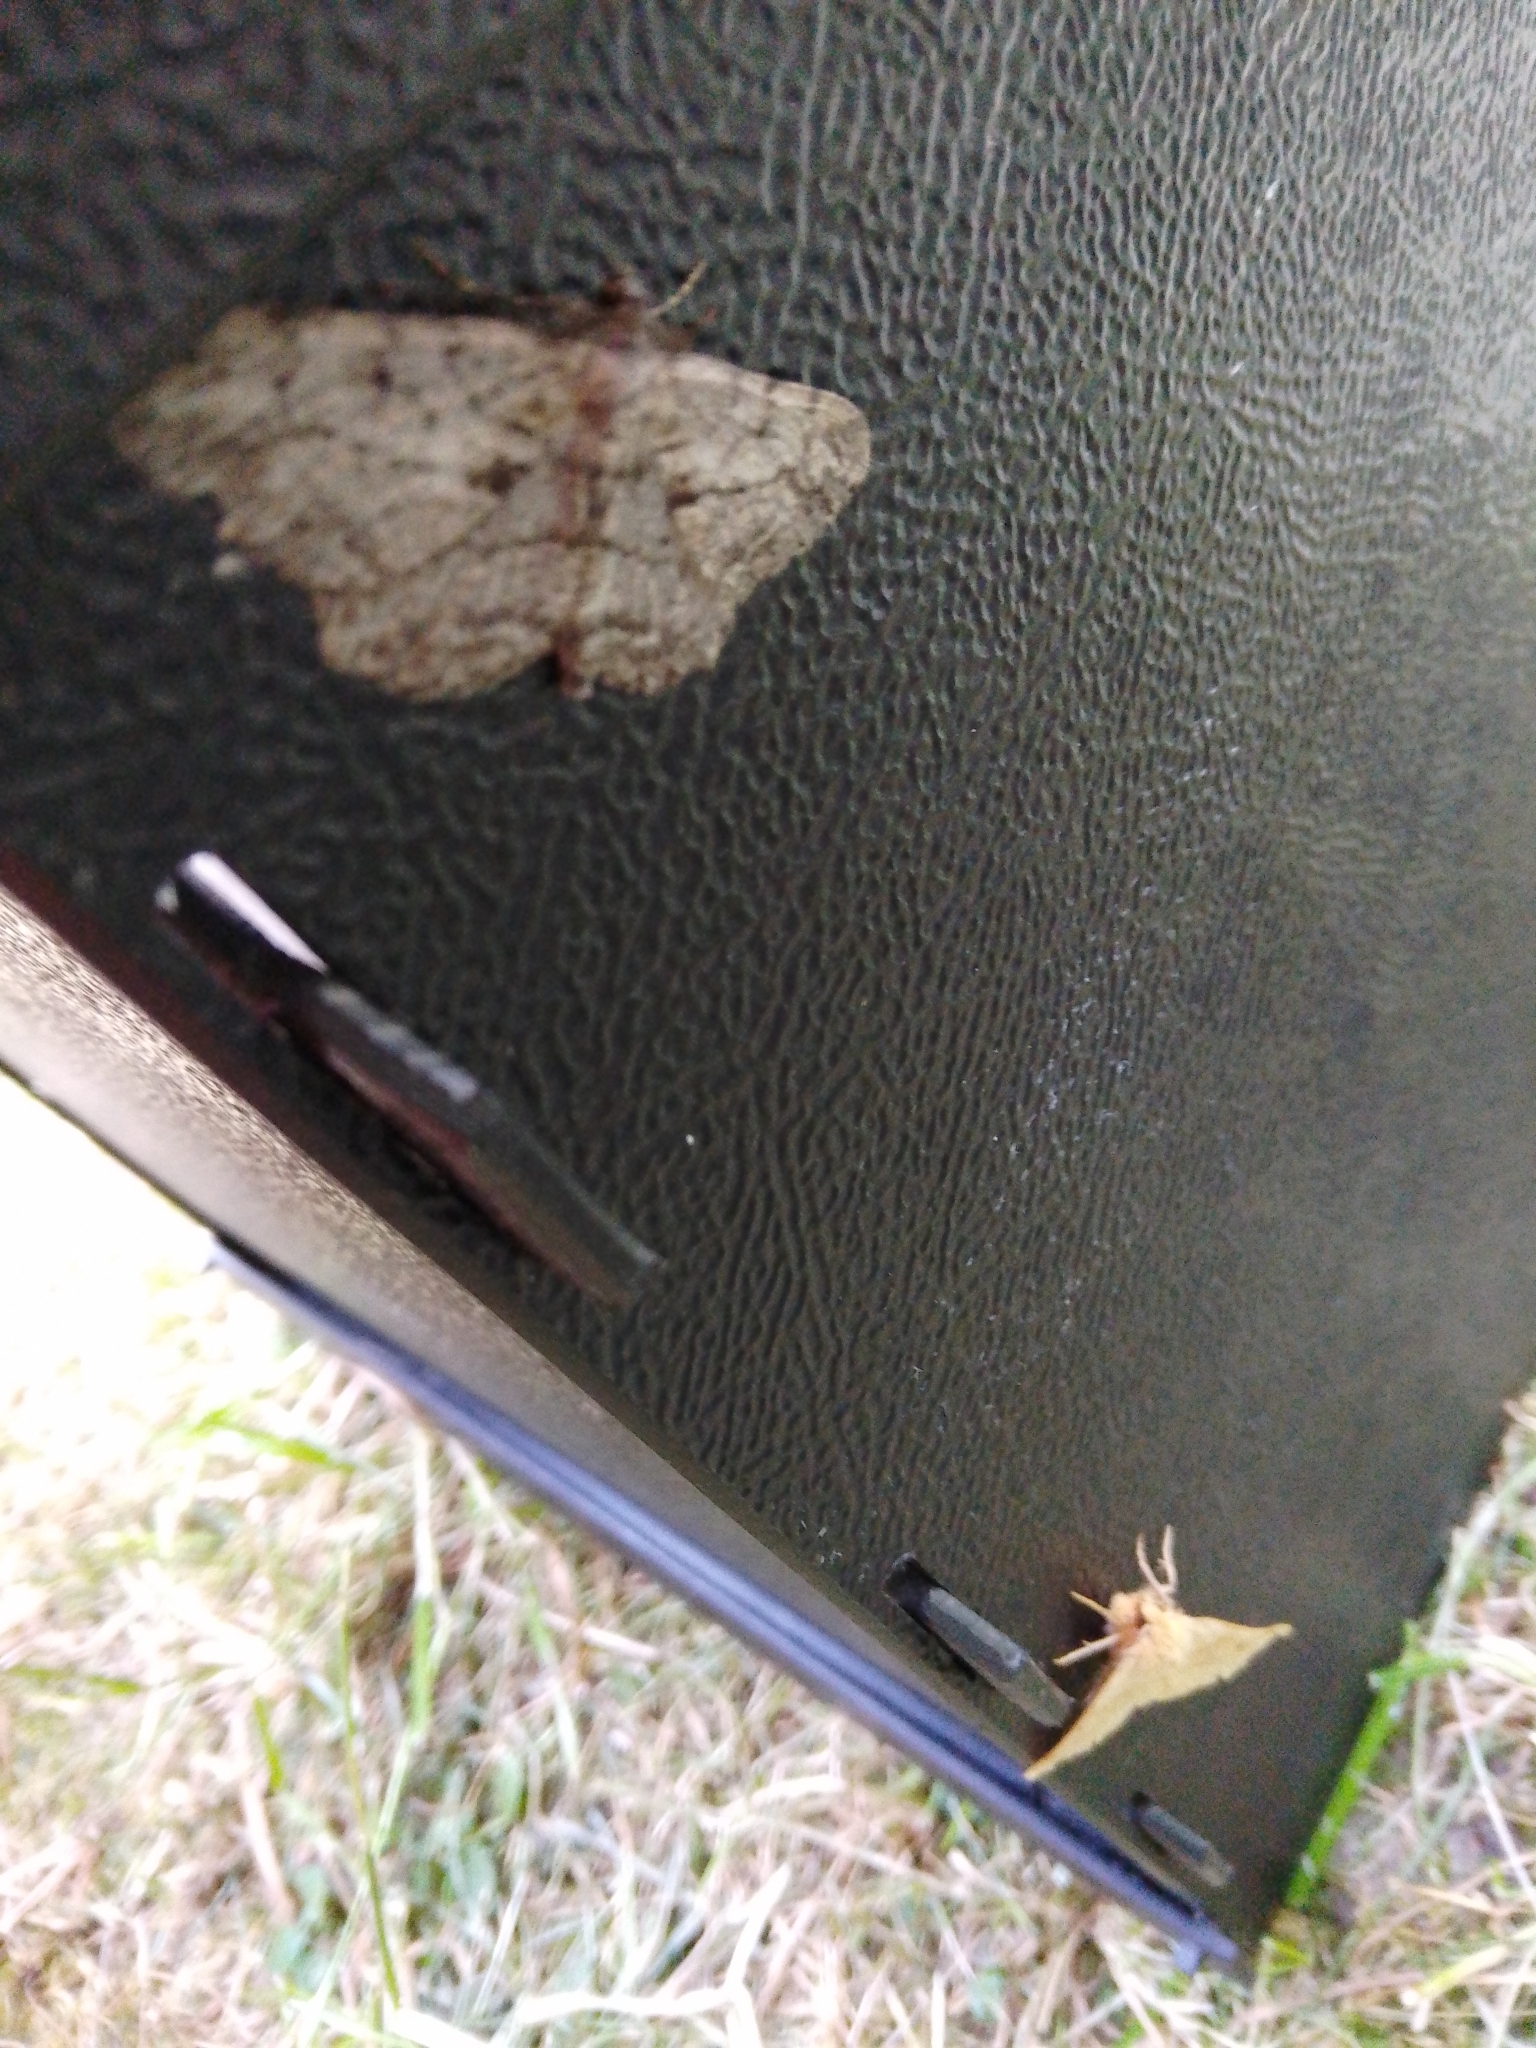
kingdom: Animalia
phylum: Arthropoda
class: Insecta
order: Lepidoptera
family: Geometridae
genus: Peribatodes
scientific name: Peribatodes rhomboidaria
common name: Willow beauty
